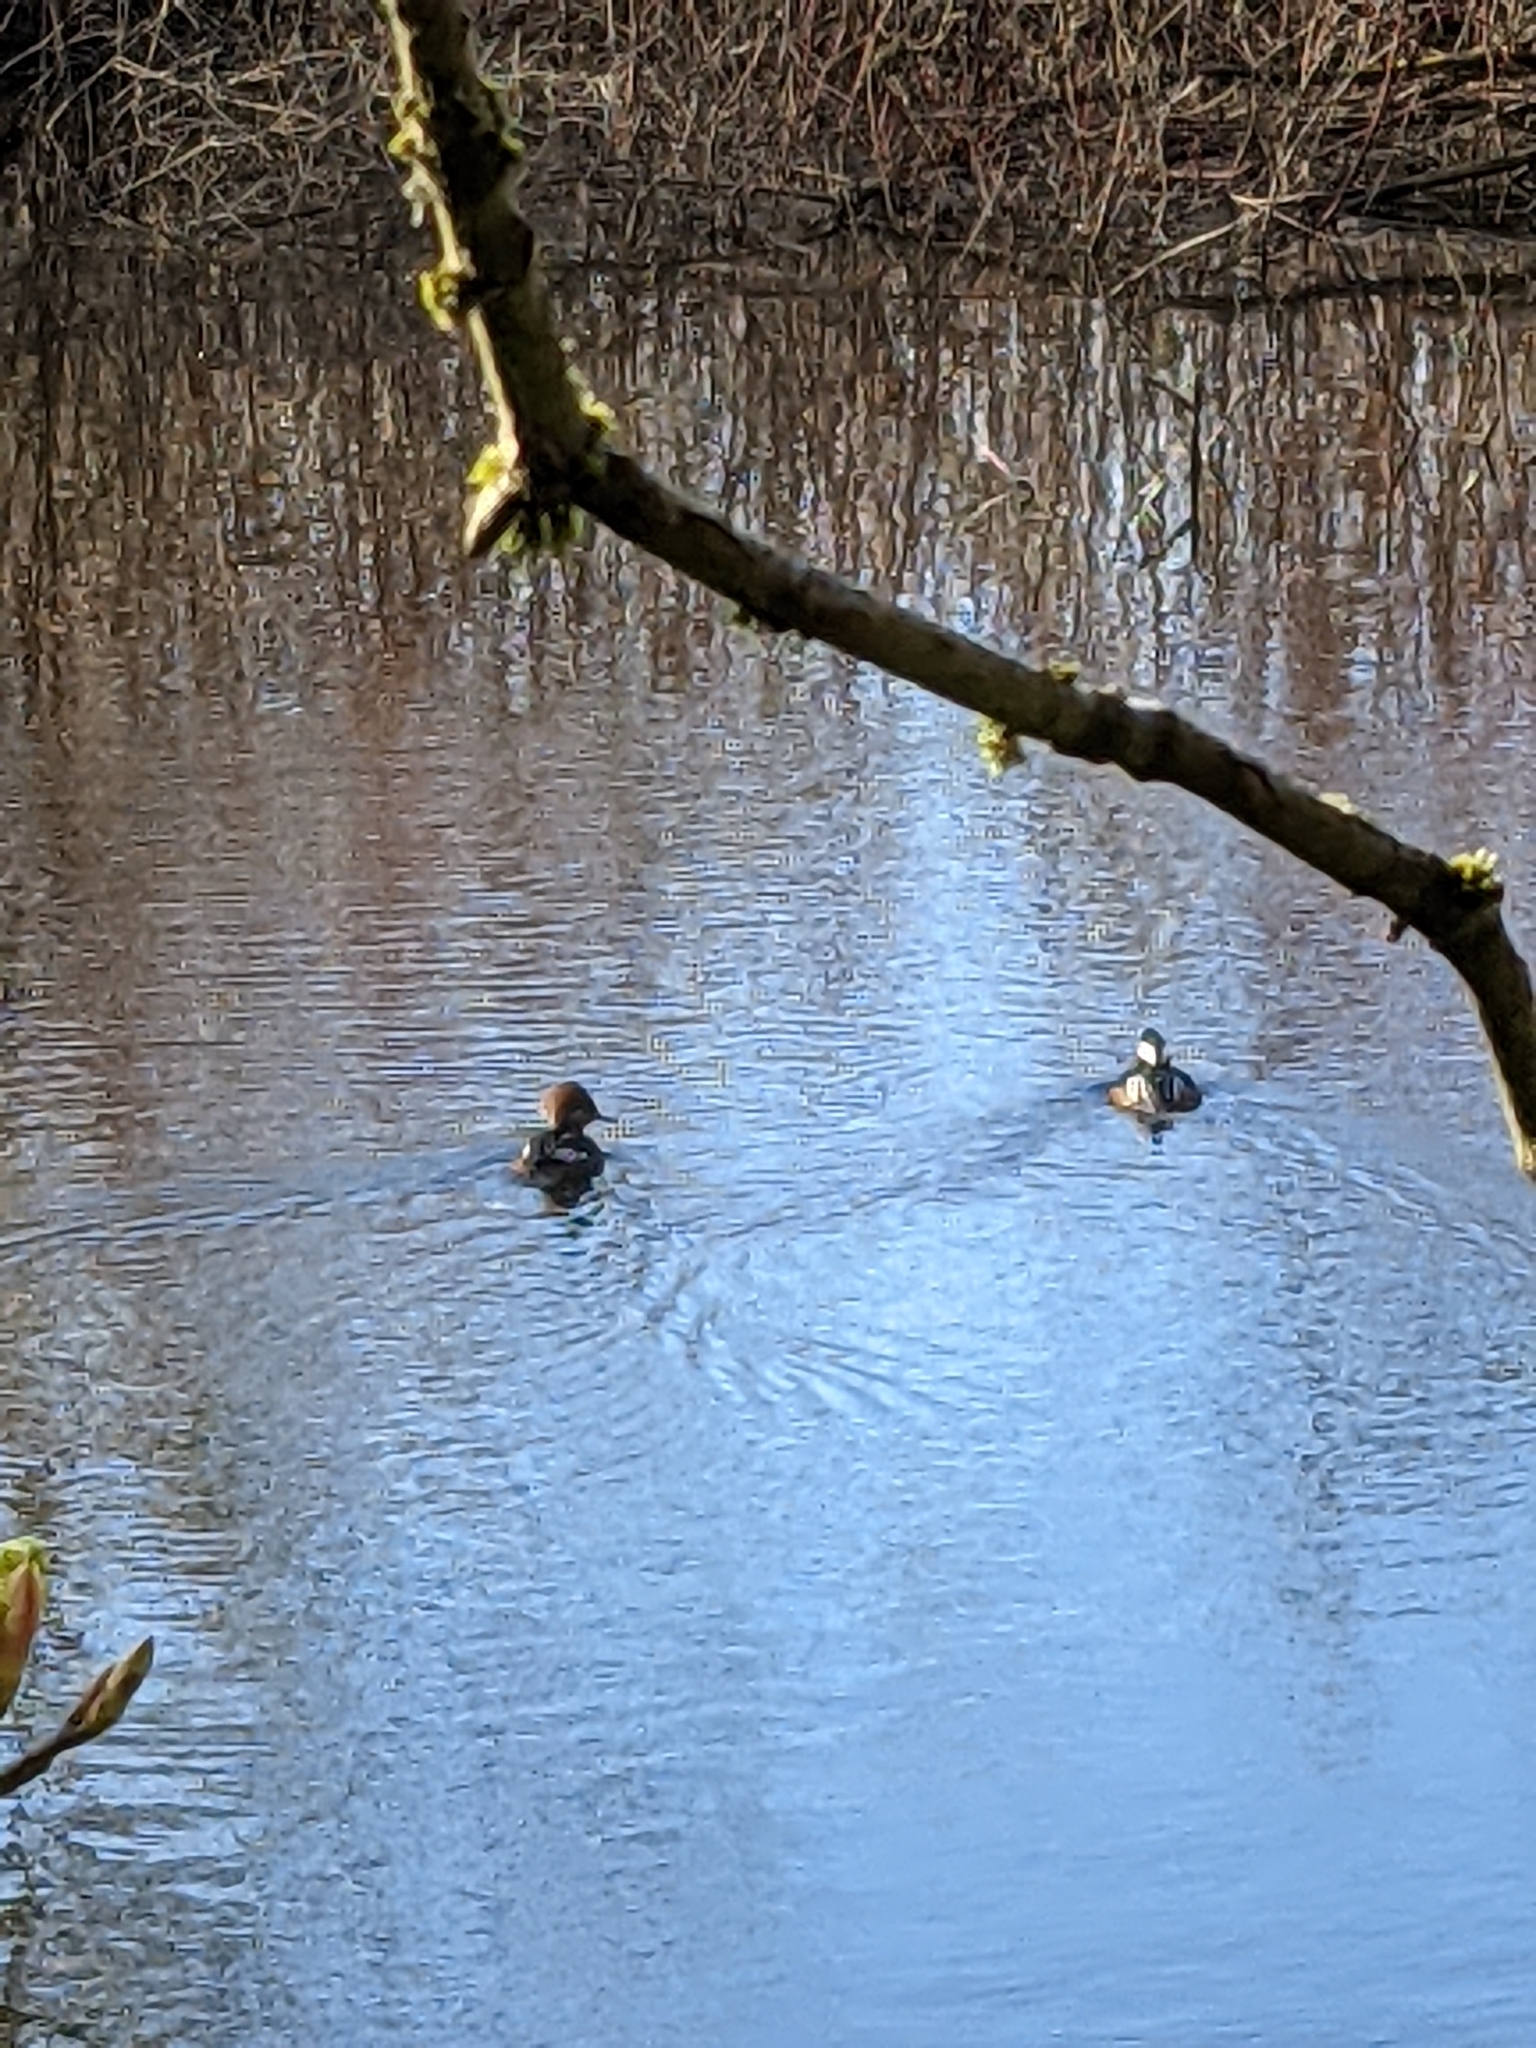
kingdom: Animalia
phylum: Chordata
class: Aves
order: Anseriformes
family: Anatidae
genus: Lophodytes
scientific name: Lophodytes cucullatus
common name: Hooded merganser
